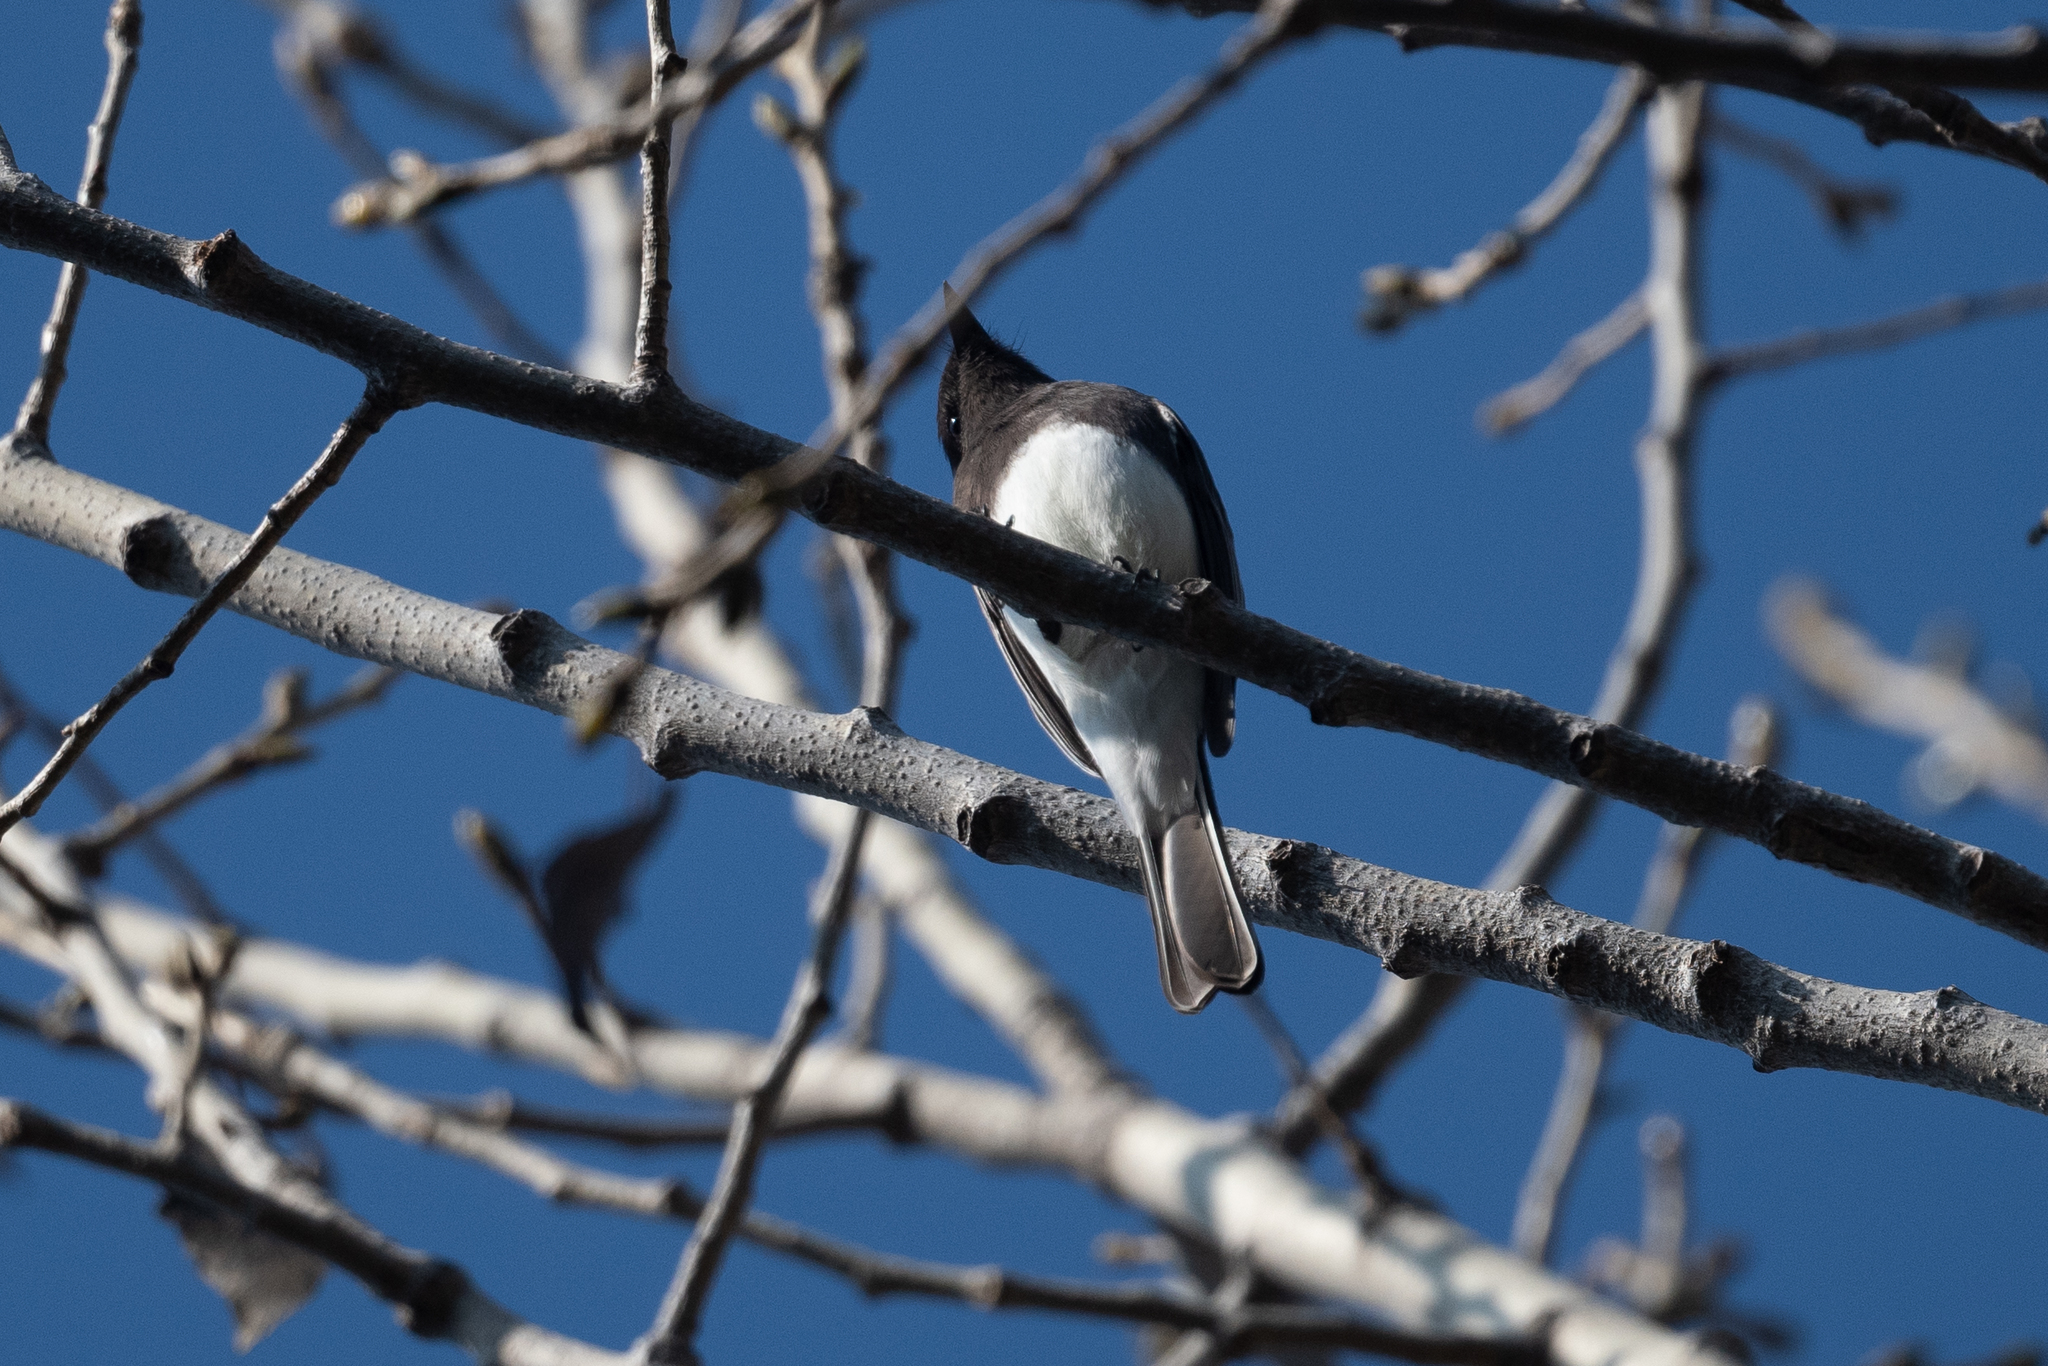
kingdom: Animalia
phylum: Chordata
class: Aves
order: Passeriformes
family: Tyrannidae
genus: Sayornis
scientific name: Sayornis nigricans
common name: Black phoebe
